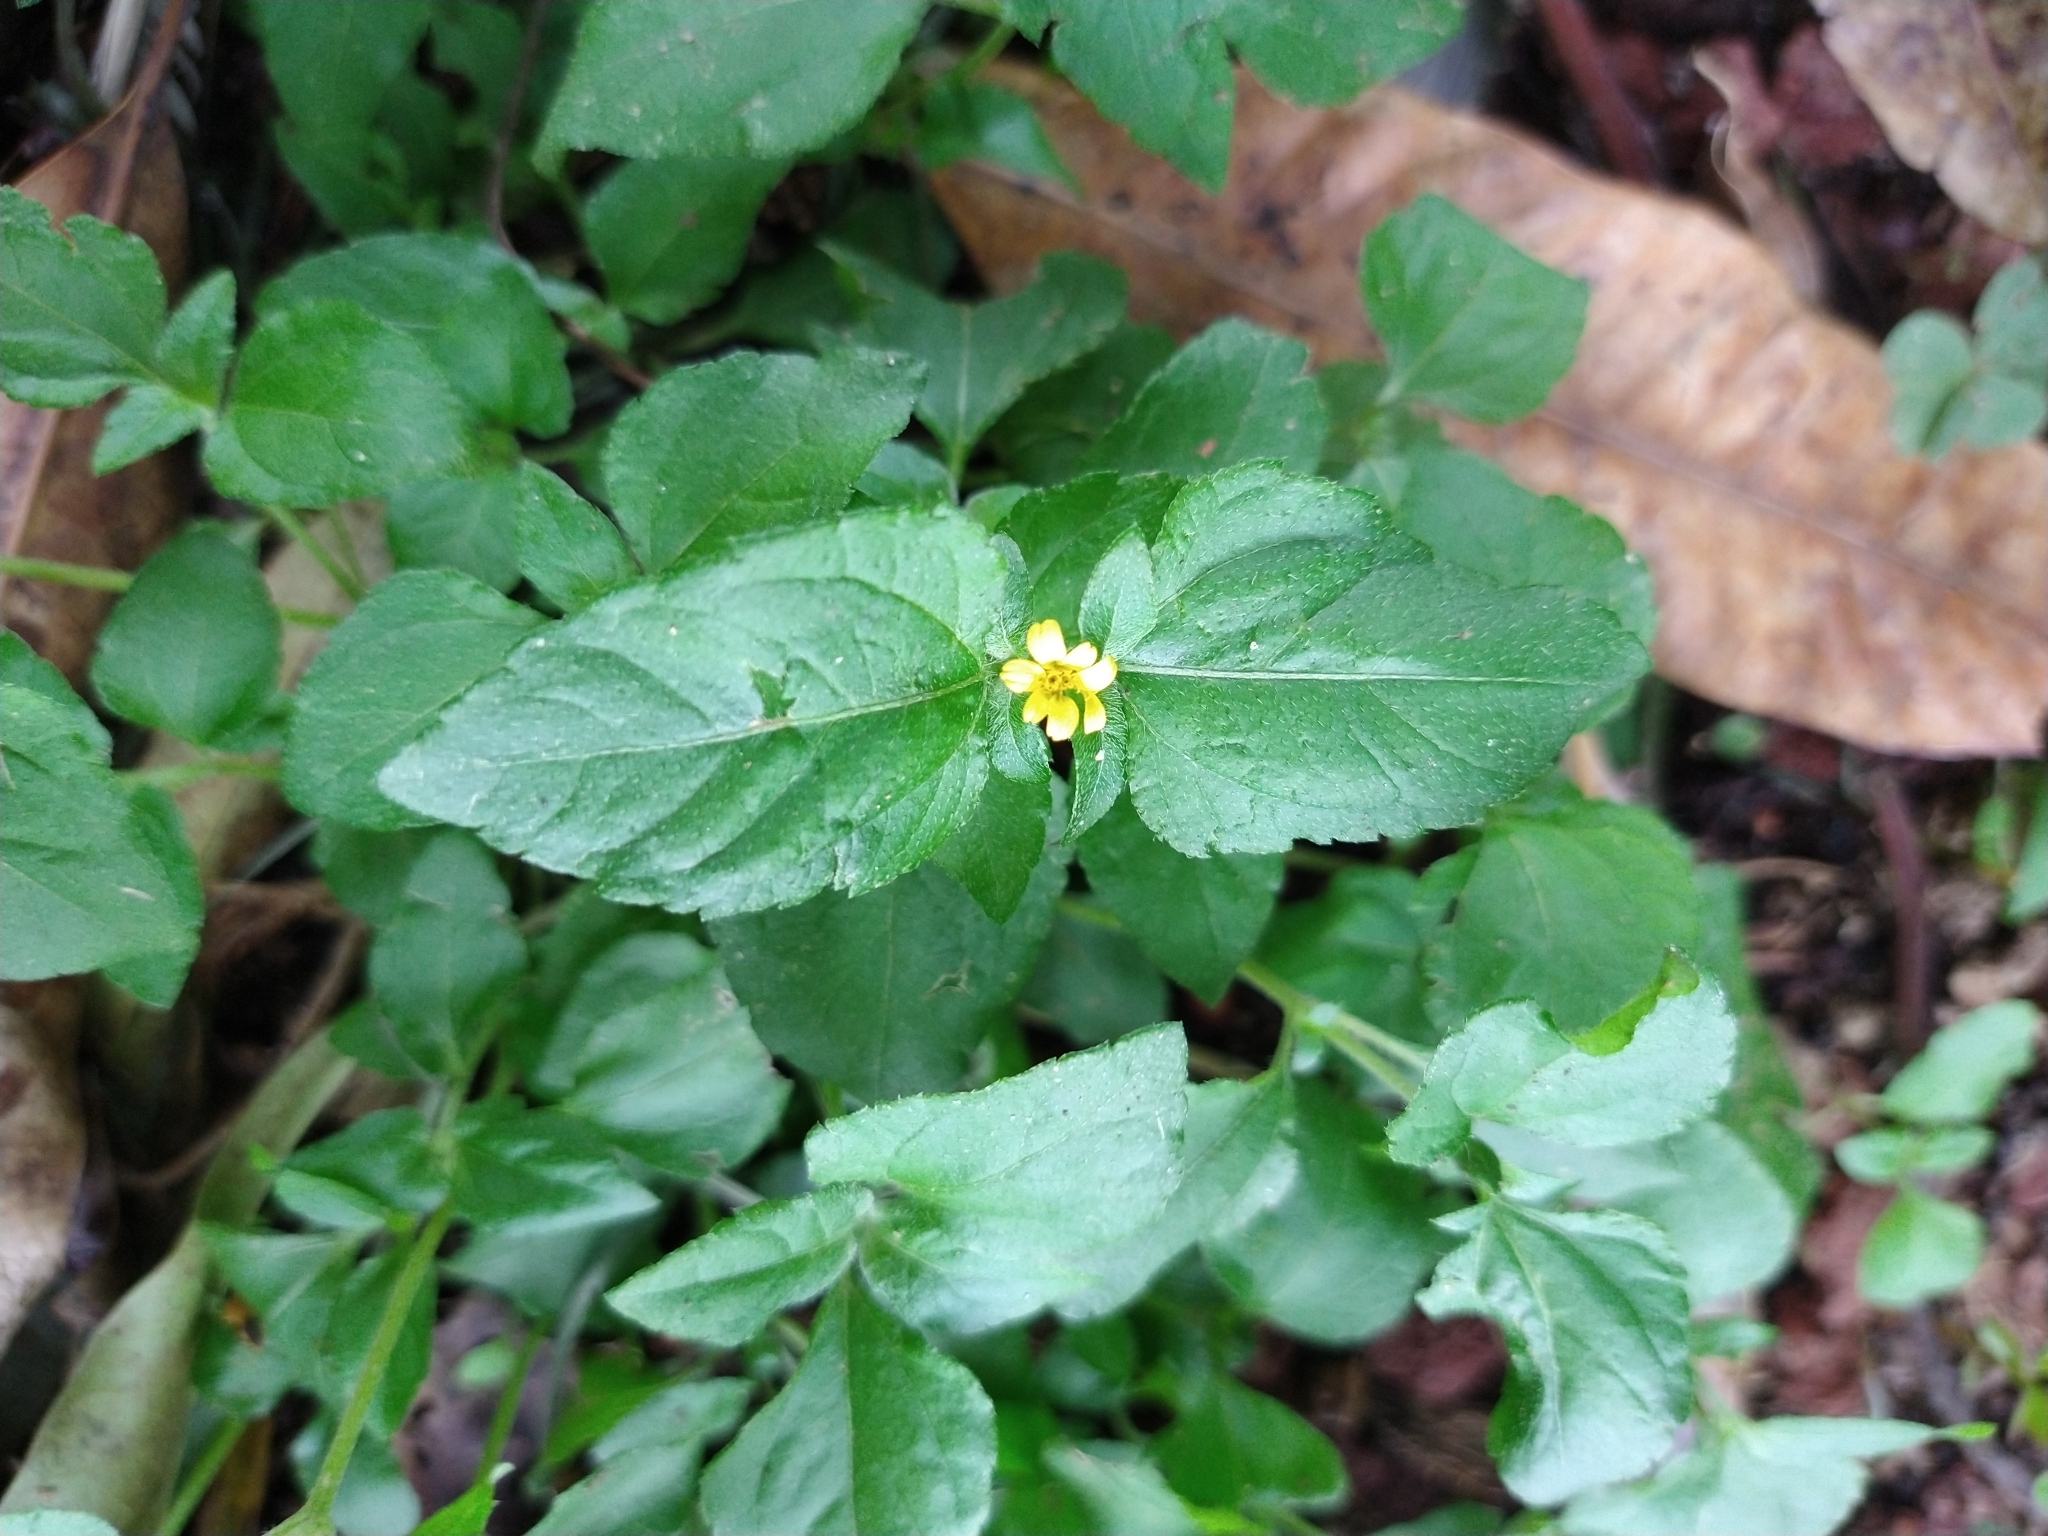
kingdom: Plantae
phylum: Tracheophyta
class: Magnoliopsida
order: Asterales
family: Asteraceae
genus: Calyptocarpus
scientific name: Calyptocarpus vialis
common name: Straggler daisy
